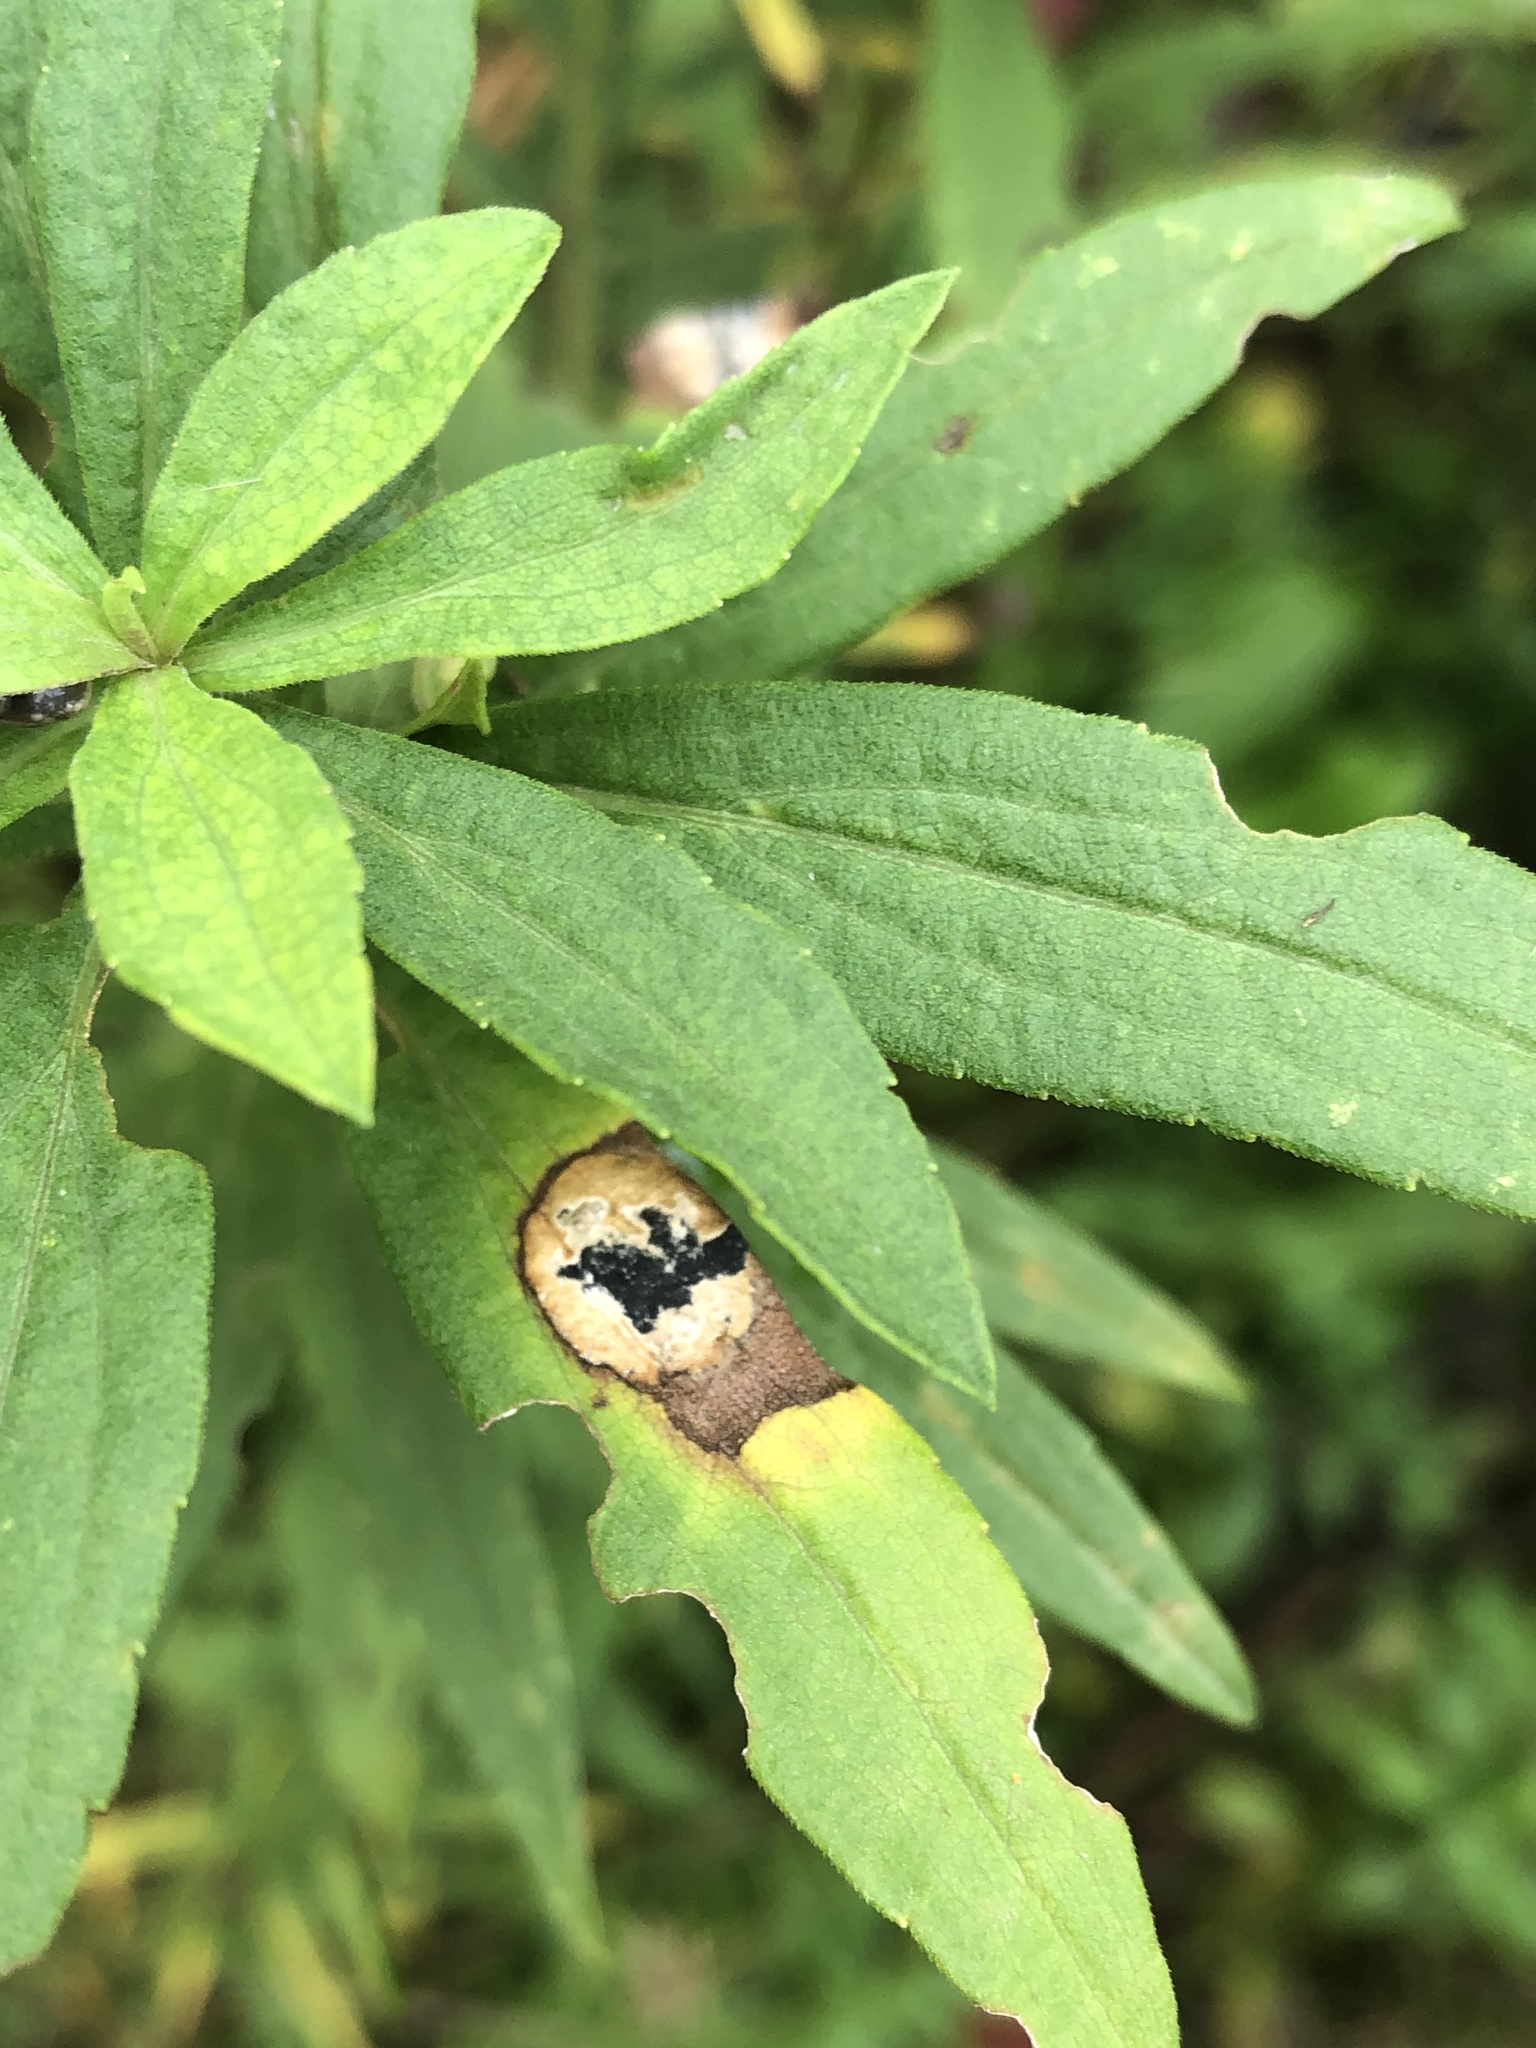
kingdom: Animalia
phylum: Arthropoda
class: Insecta
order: Diptera
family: Cecidomyiidae
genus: Asteromyia
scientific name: Asteromyia carbonifera
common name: Carbonifera goldenrod gall midge
